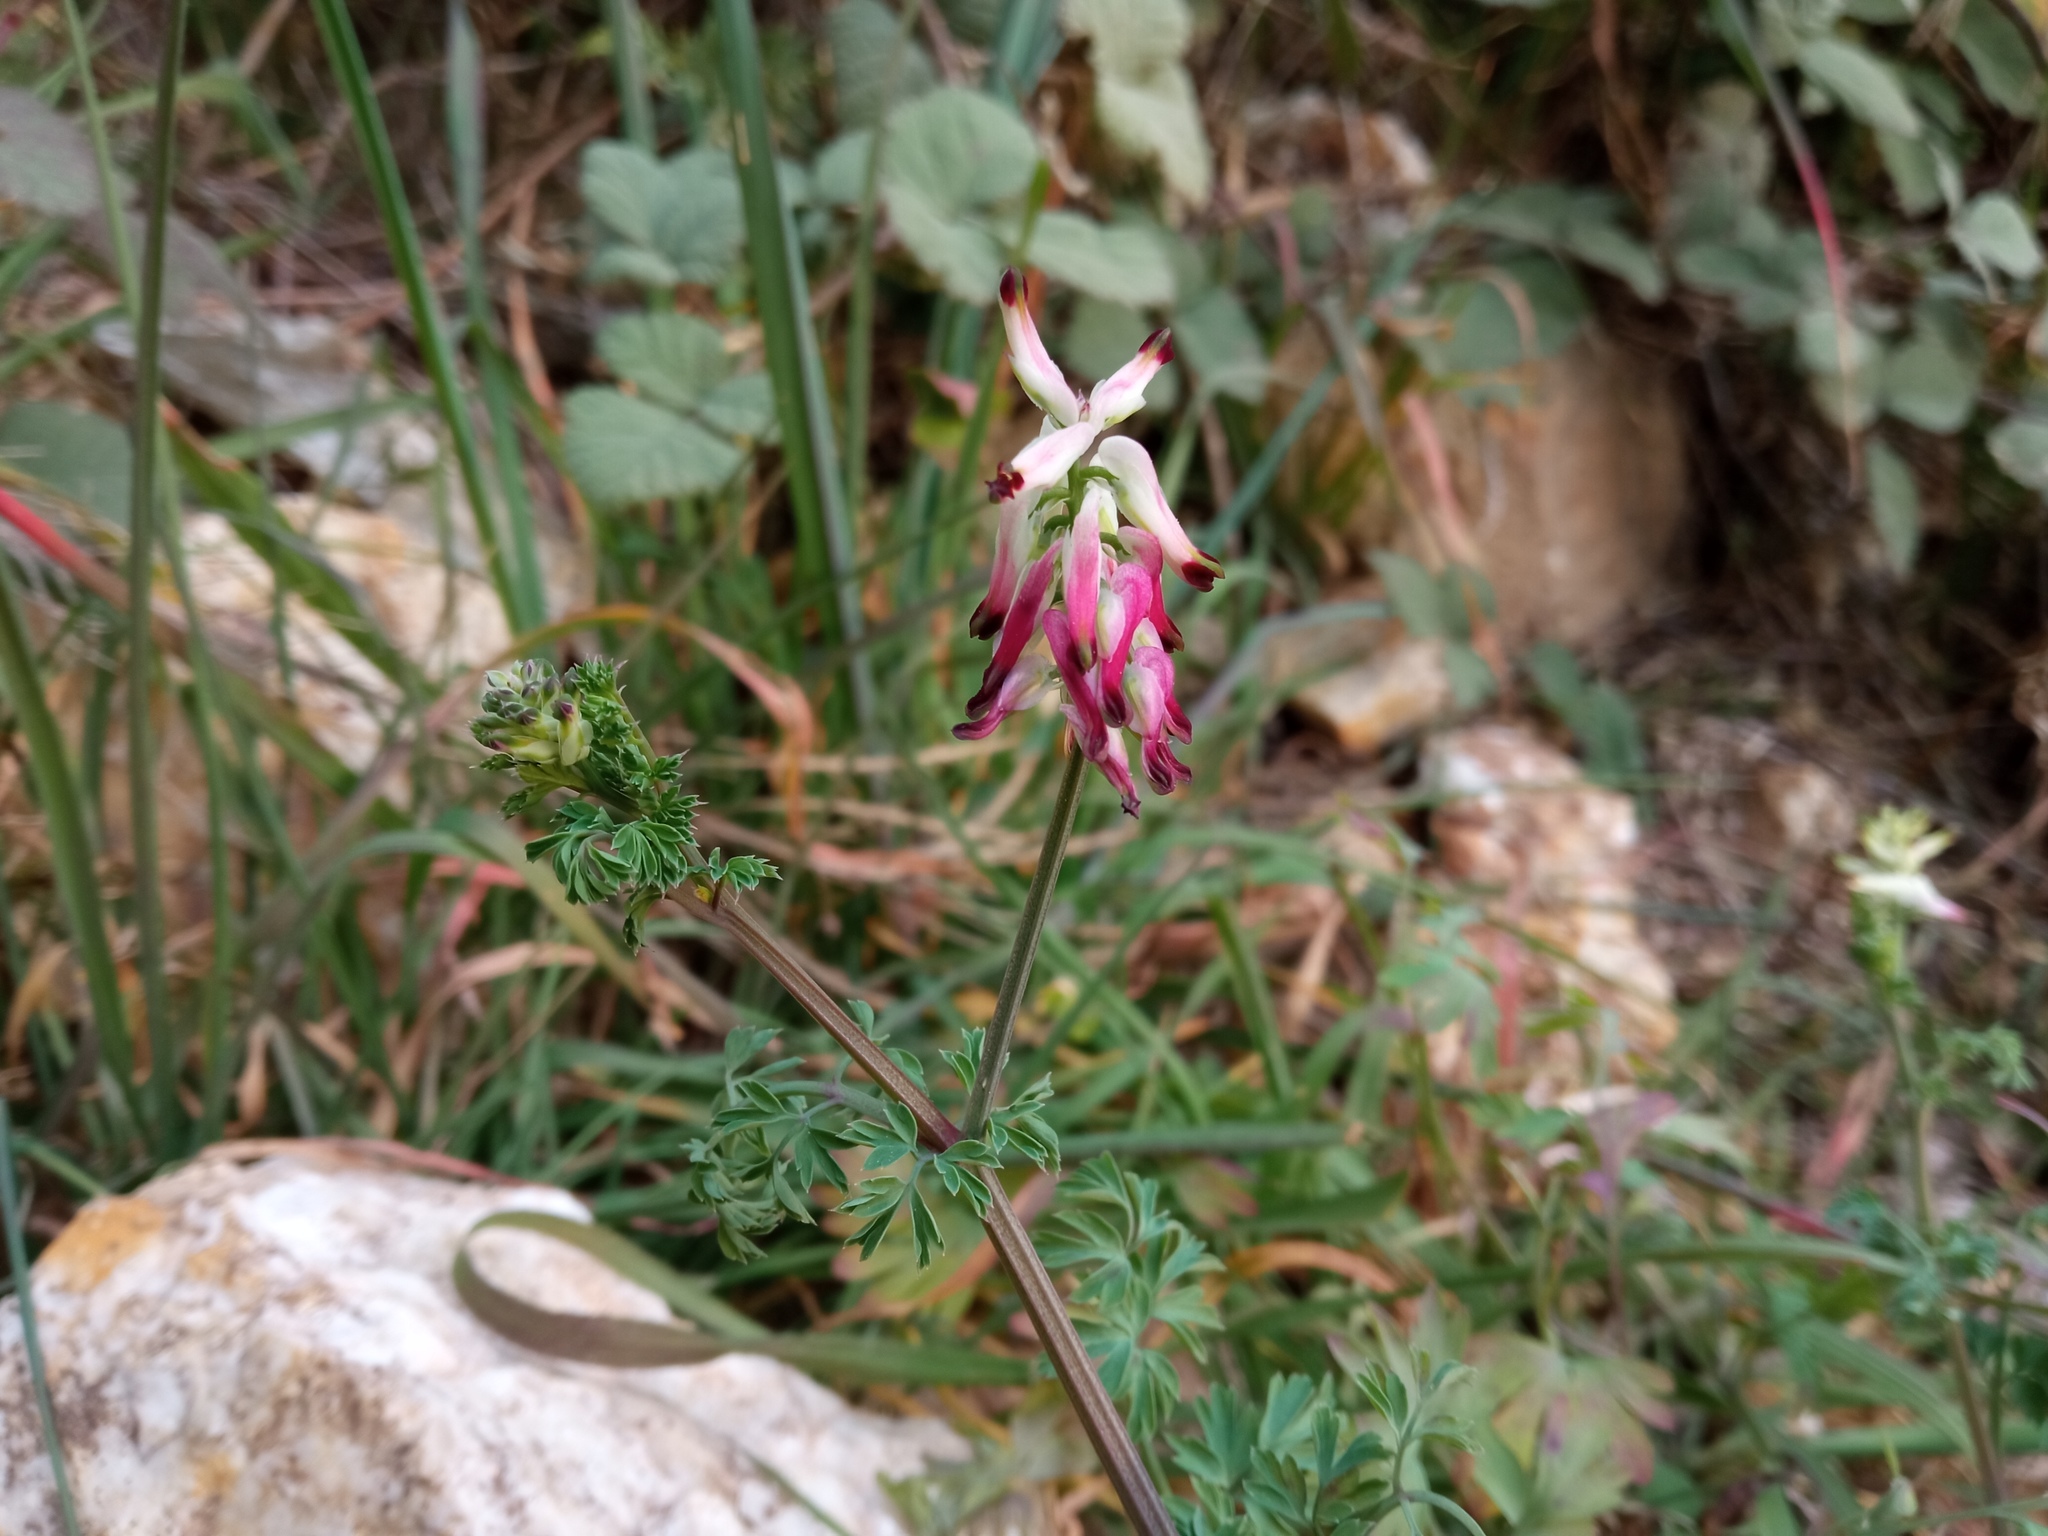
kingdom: Plantae
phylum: Tracheophyta
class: Magnoliopsida
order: Ranunculales
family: Papaveraceae
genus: Fumaria
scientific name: Fumaria capreolata
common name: White ramping-fumitory
